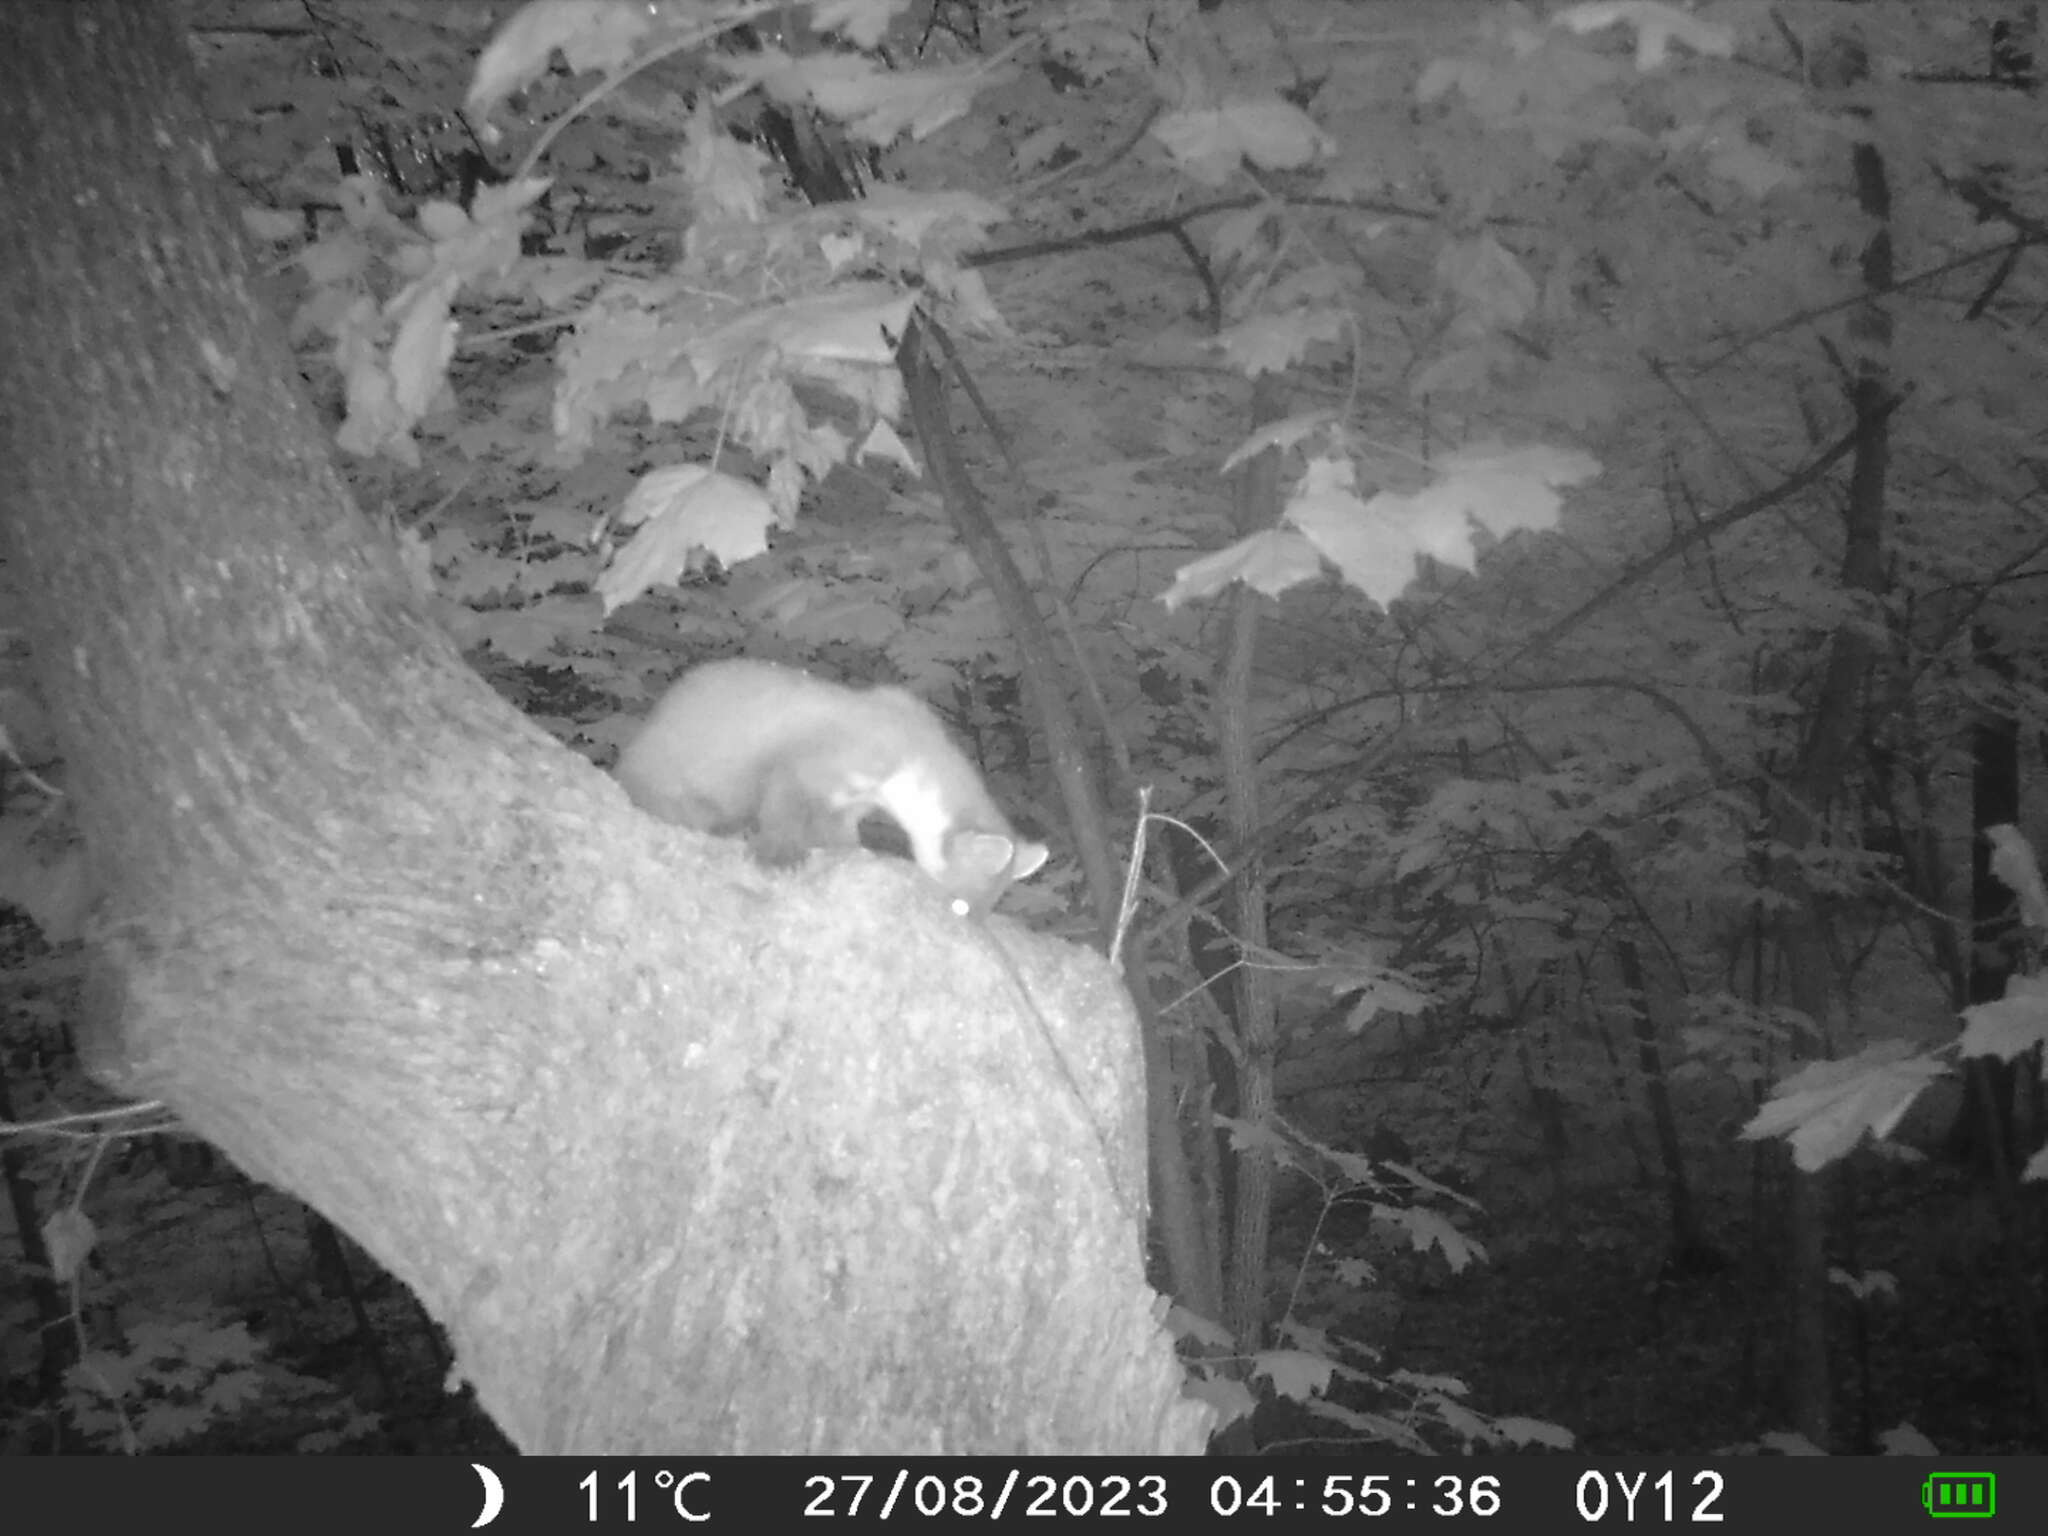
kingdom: Animalia
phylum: Chordata
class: Mammalia
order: Carnivora
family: Mustelidae
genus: Martes
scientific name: Martes martes
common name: European pine marten
